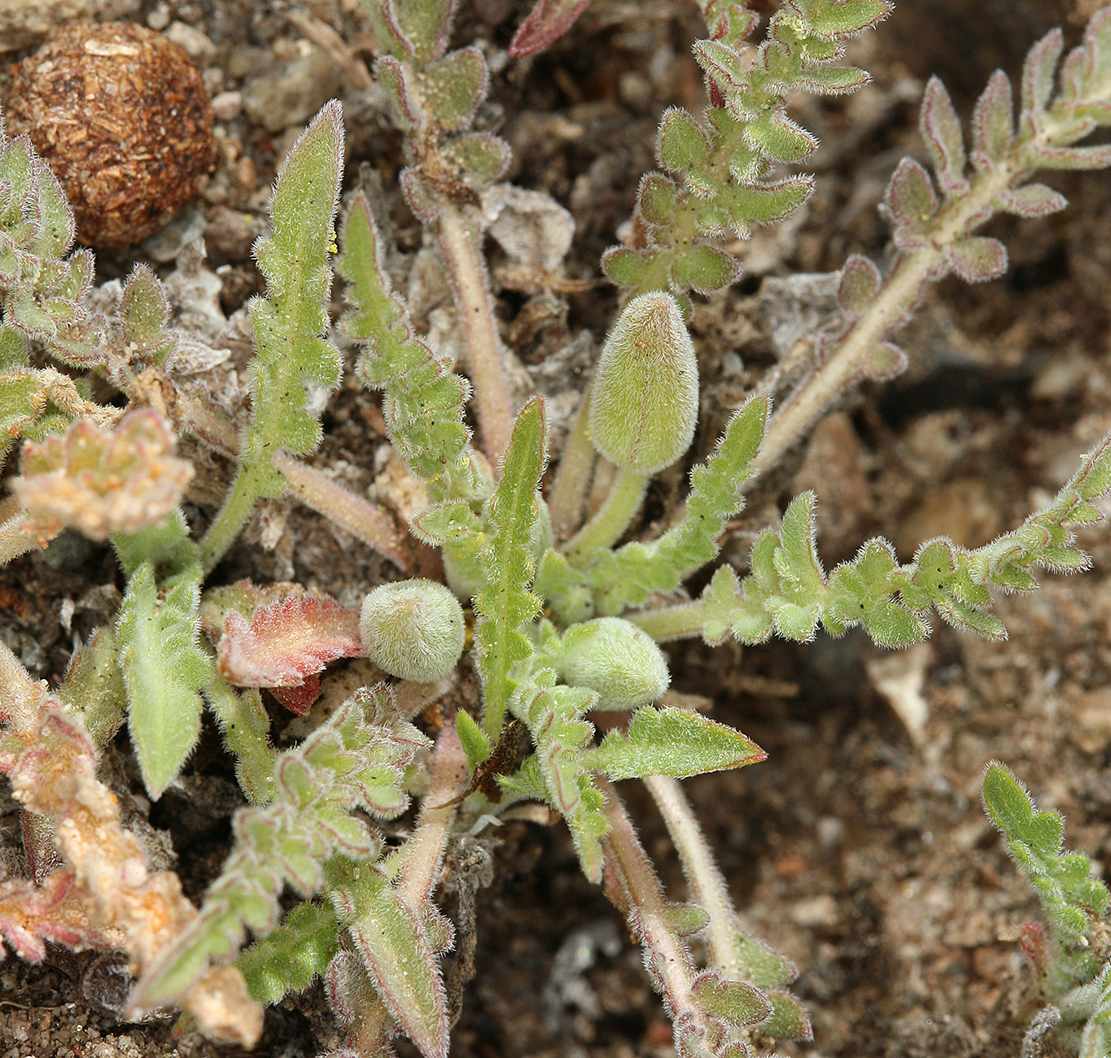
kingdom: Plantae
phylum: Tracheophyta
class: Magnoliopsida
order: Myrtales
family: Onagraceae
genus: Taraxia
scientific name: Taraxia tanacetifolia
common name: Tansyleaf evening primrose
